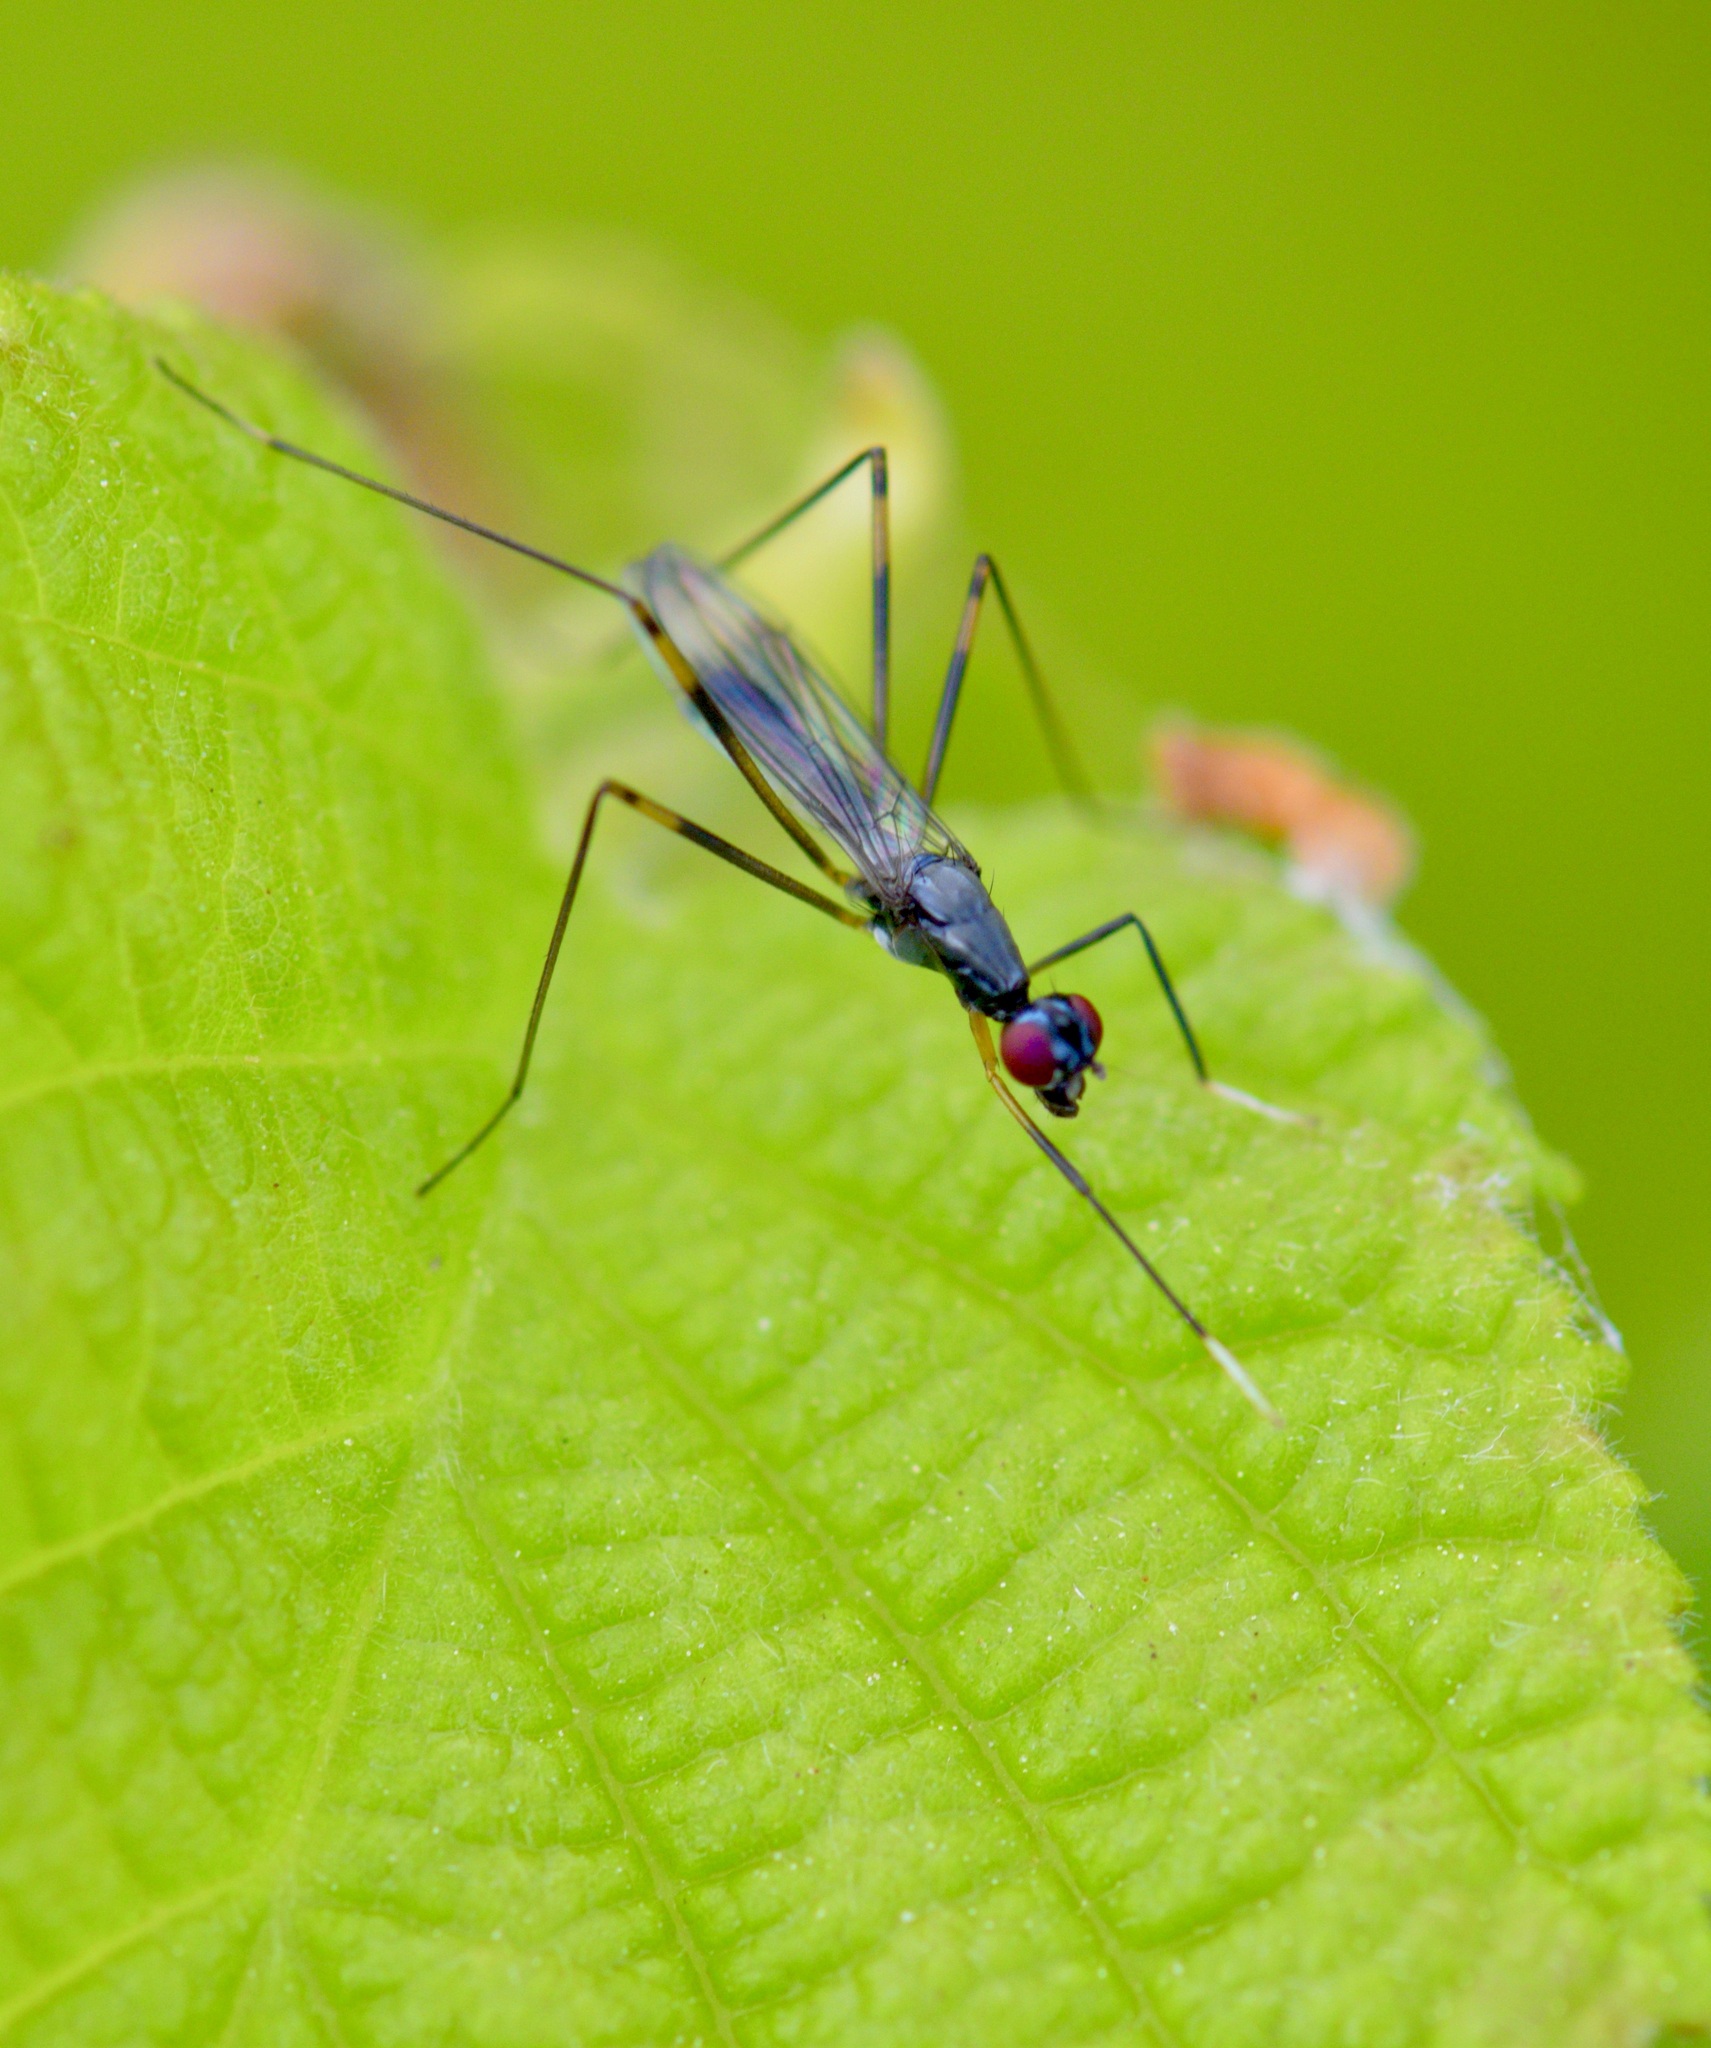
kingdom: Animalia
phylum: Arthropoda
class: Insecta
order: Diptera
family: Micropezidae
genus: Rainieria
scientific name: Rainieria antennaepes
